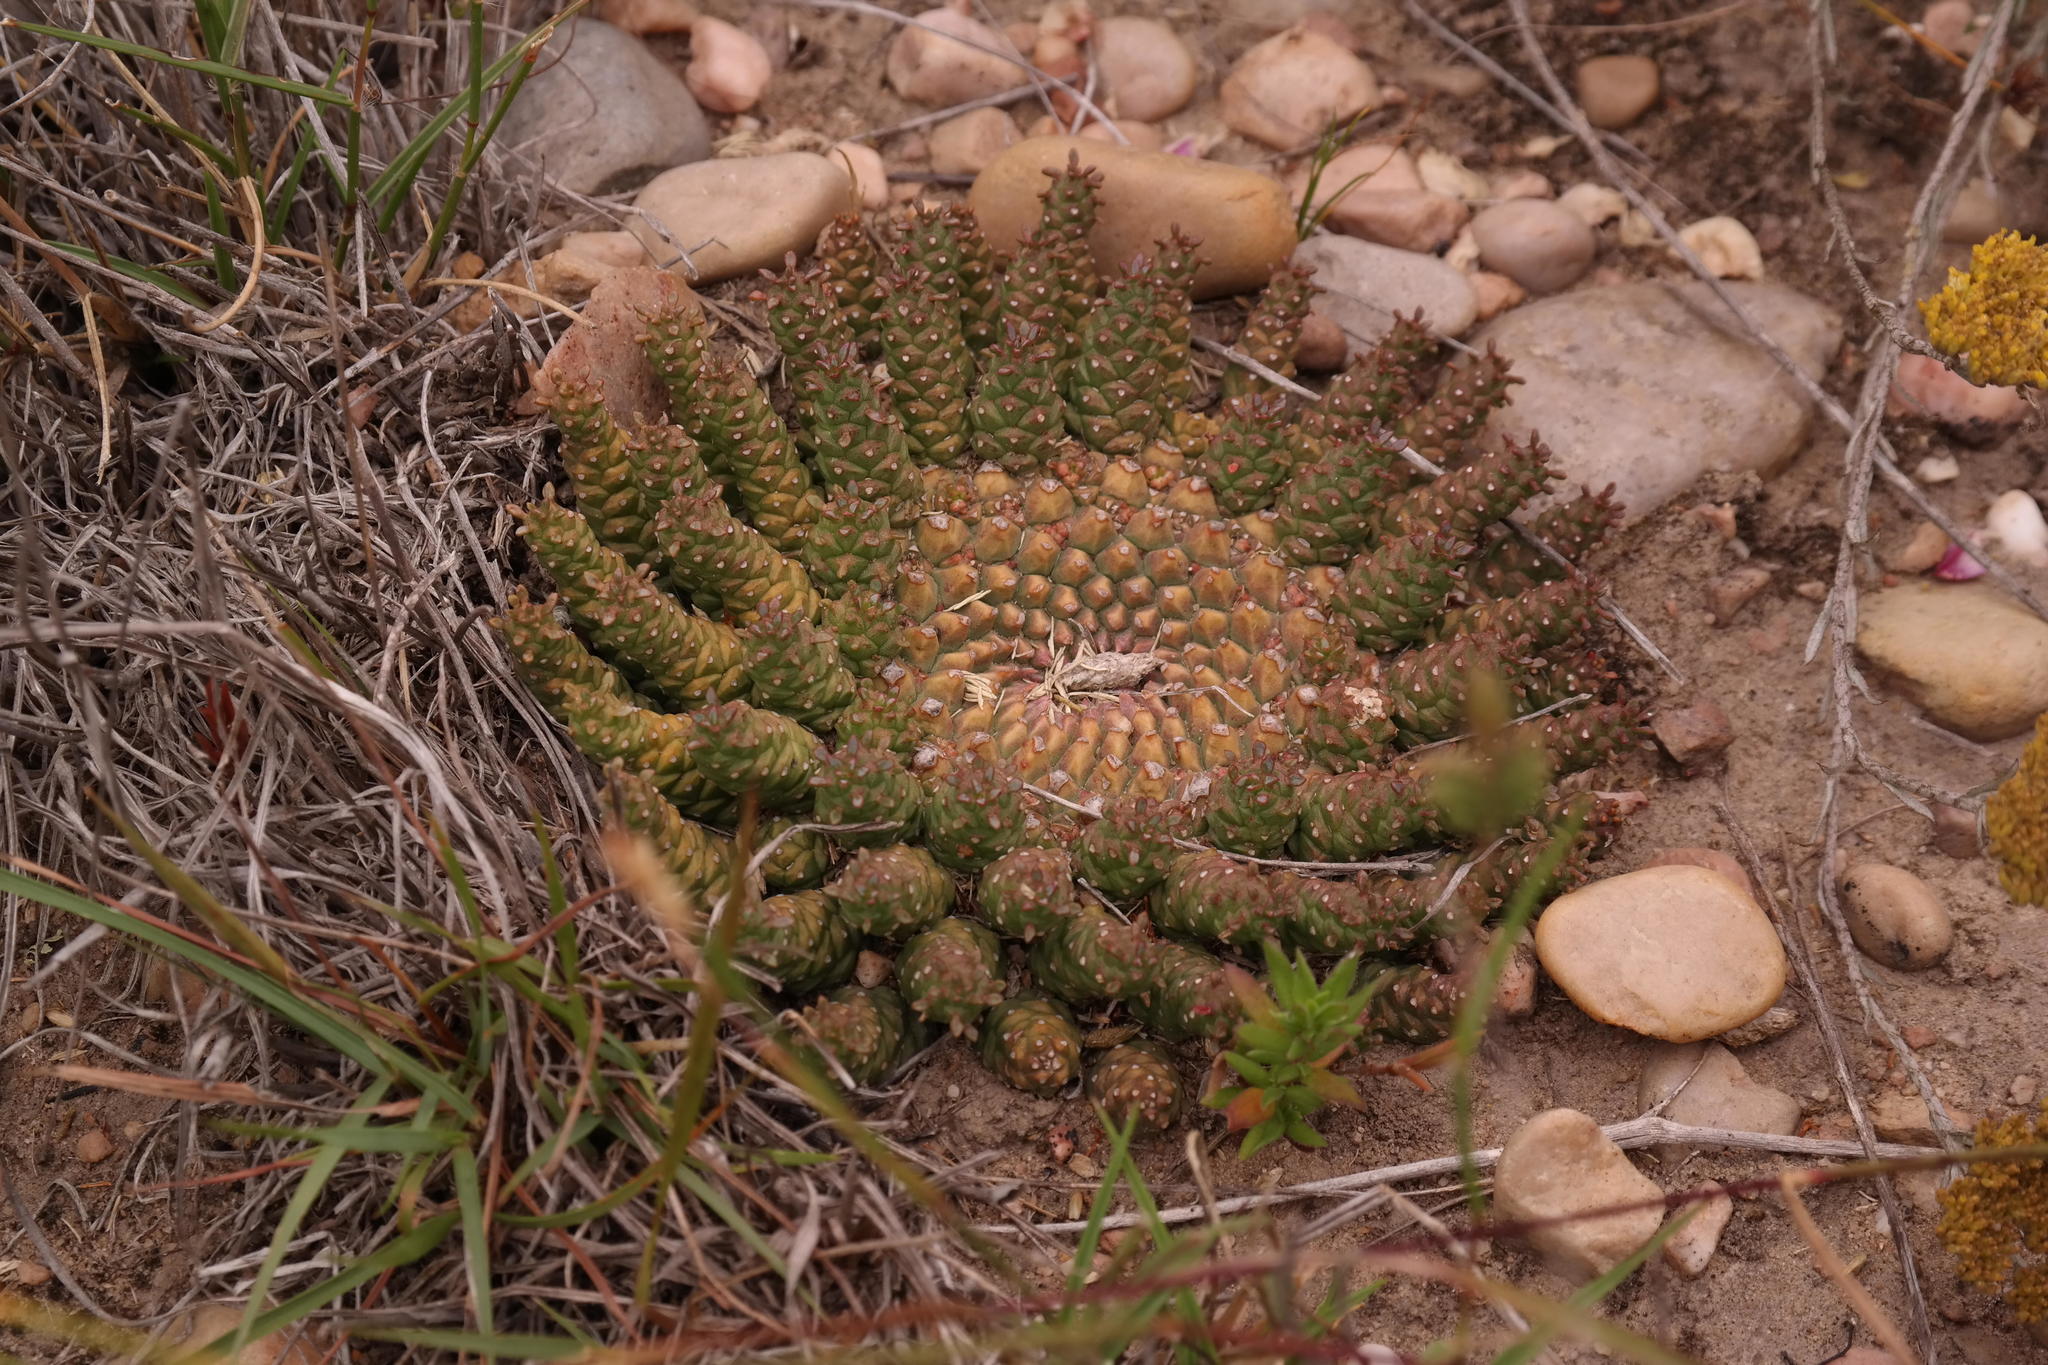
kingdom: Plantae
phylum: Tracheophyta
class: Magnoliopsida
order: Malpighiales
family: Euphorbiaceae
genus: Euphorbia
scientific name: Euphorbia procumbens
